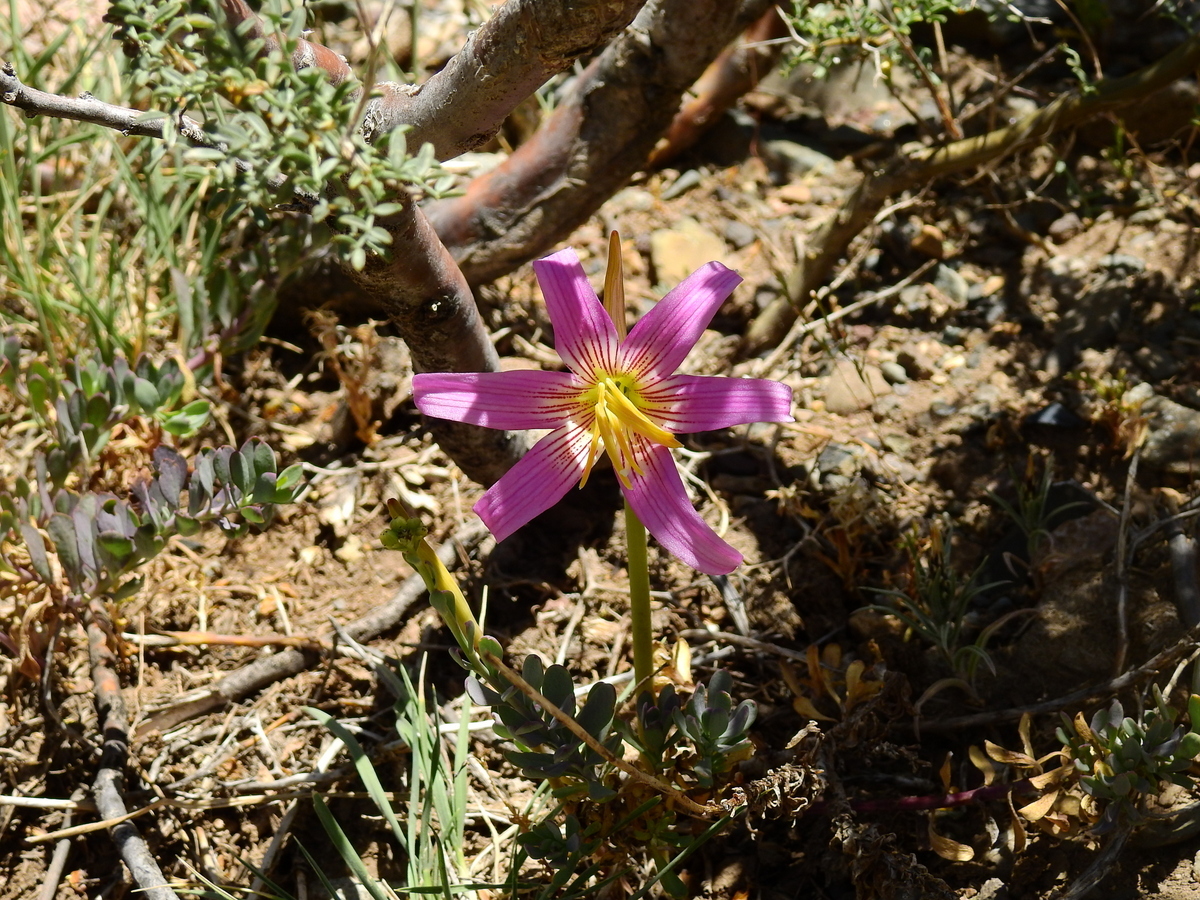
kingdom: Plantae
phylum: Tracheophyta
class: Liliopsida
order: Asparagales
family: Amaryllidaceae
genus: Rhodolirium
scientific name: Rhodolirium montanum
